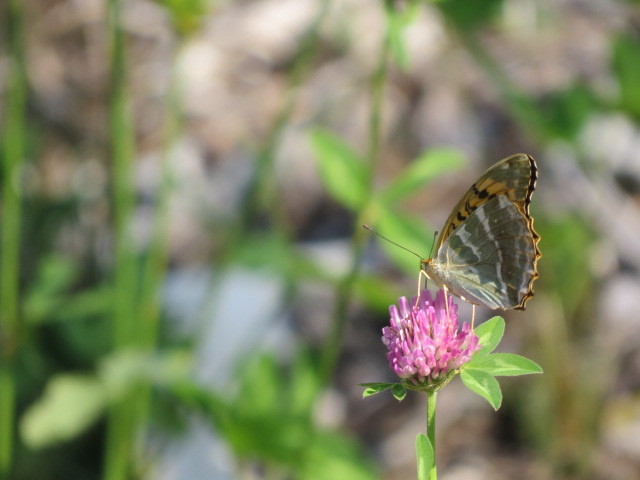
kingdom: Animalia
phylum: Arthropoda
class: Insecta
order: Lepidoptera
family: Nymphalidae
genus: Argynnis
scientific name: Argynnis paphia
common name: Silver-washed fritillary
